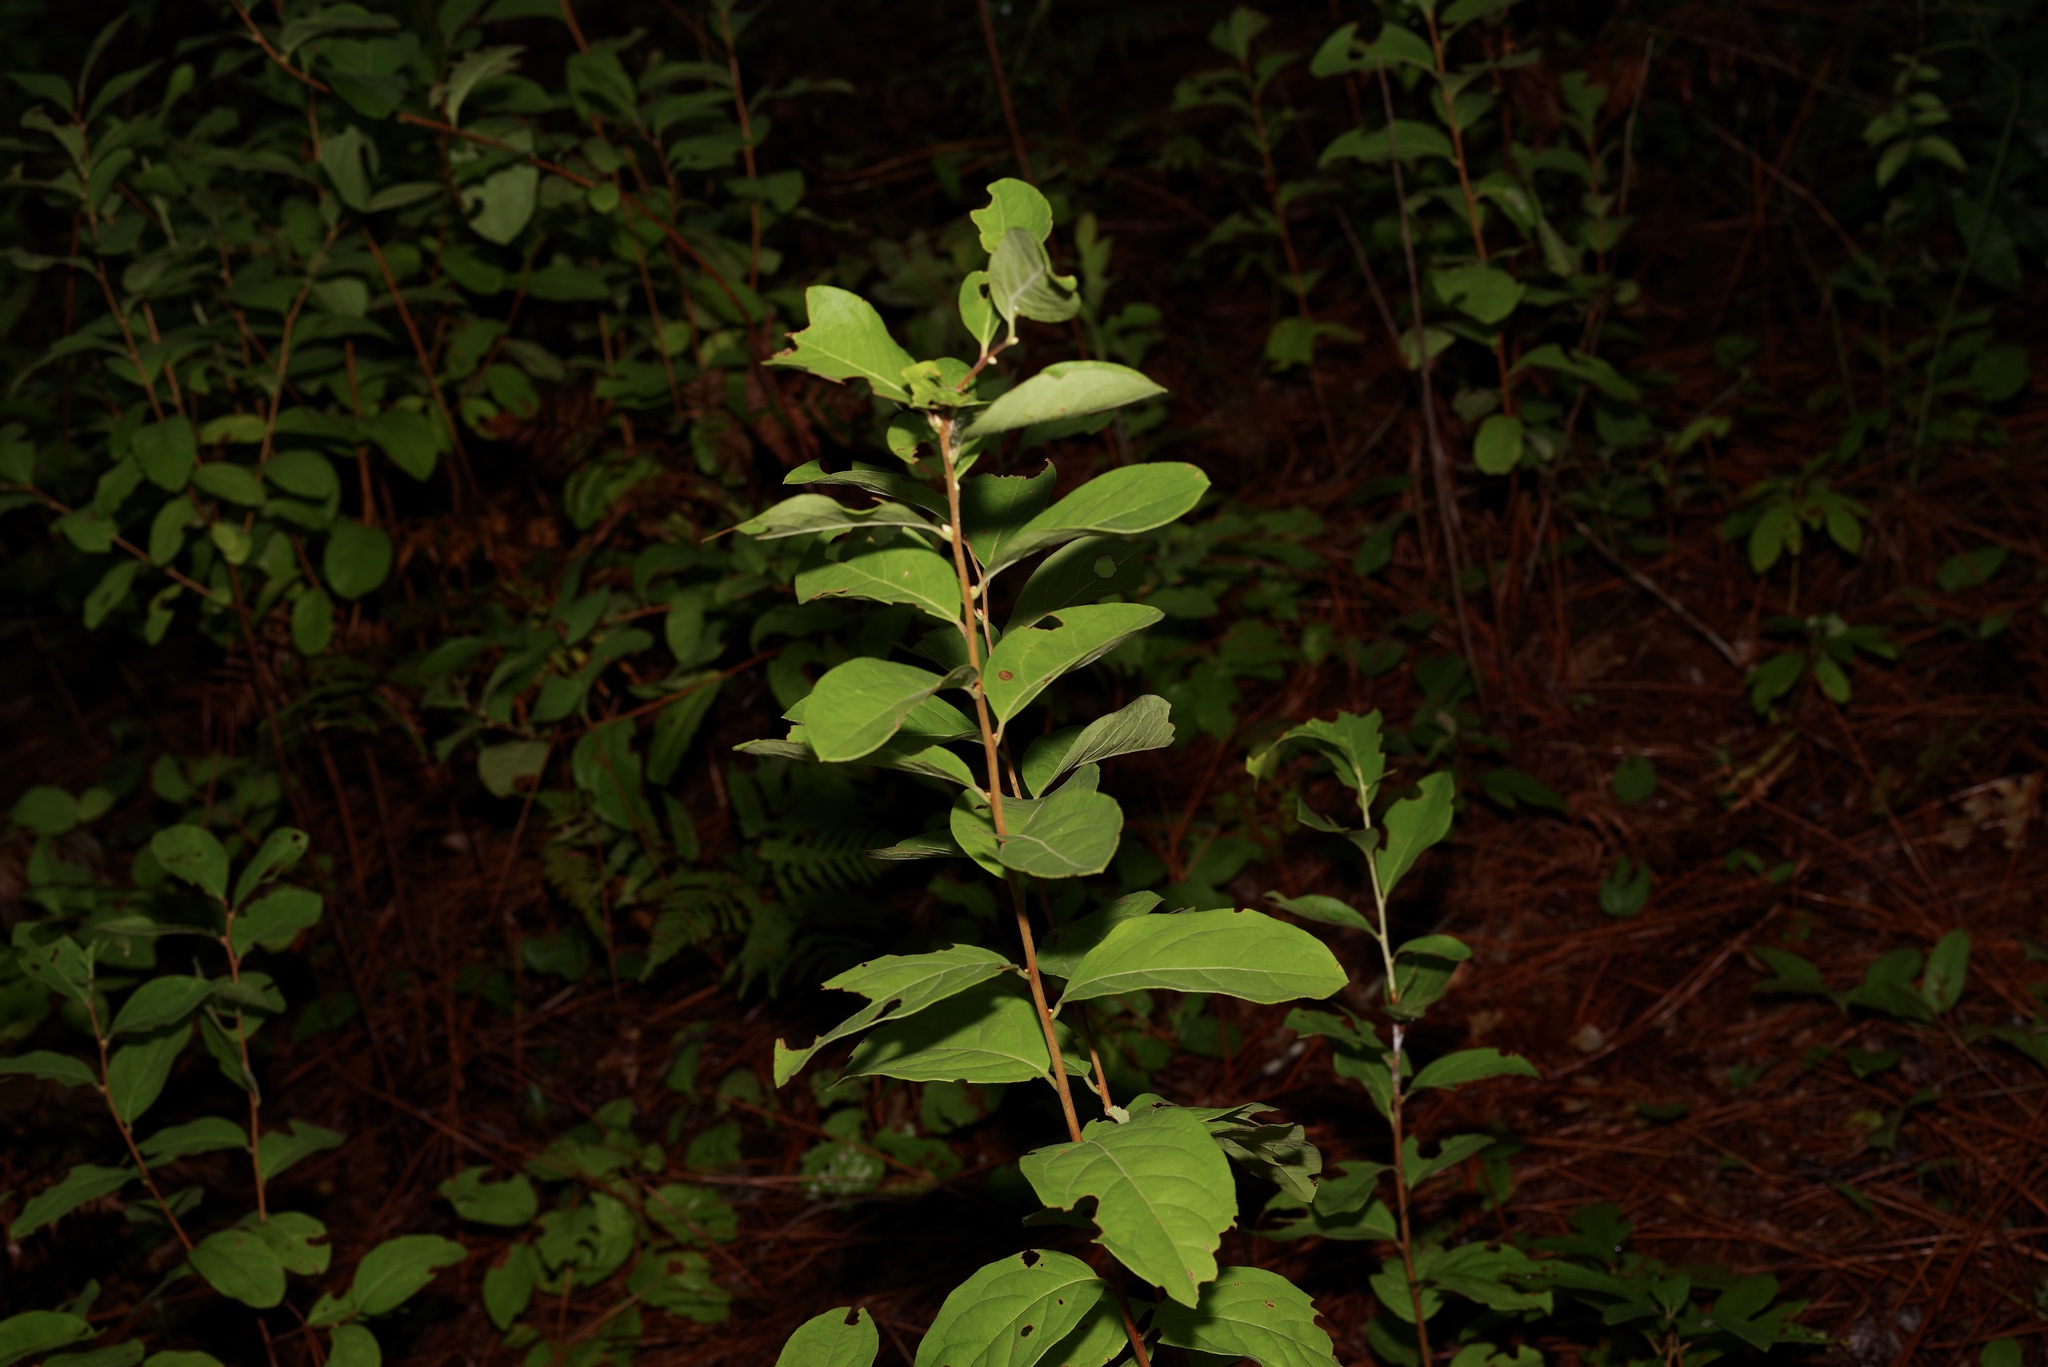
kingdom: Plantae
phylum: Tracheophyta
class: Magnoliopsida
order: Ericales
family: Ericaceae
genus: Lyonia
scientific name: Lyonia mariana
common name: Staggerbush
